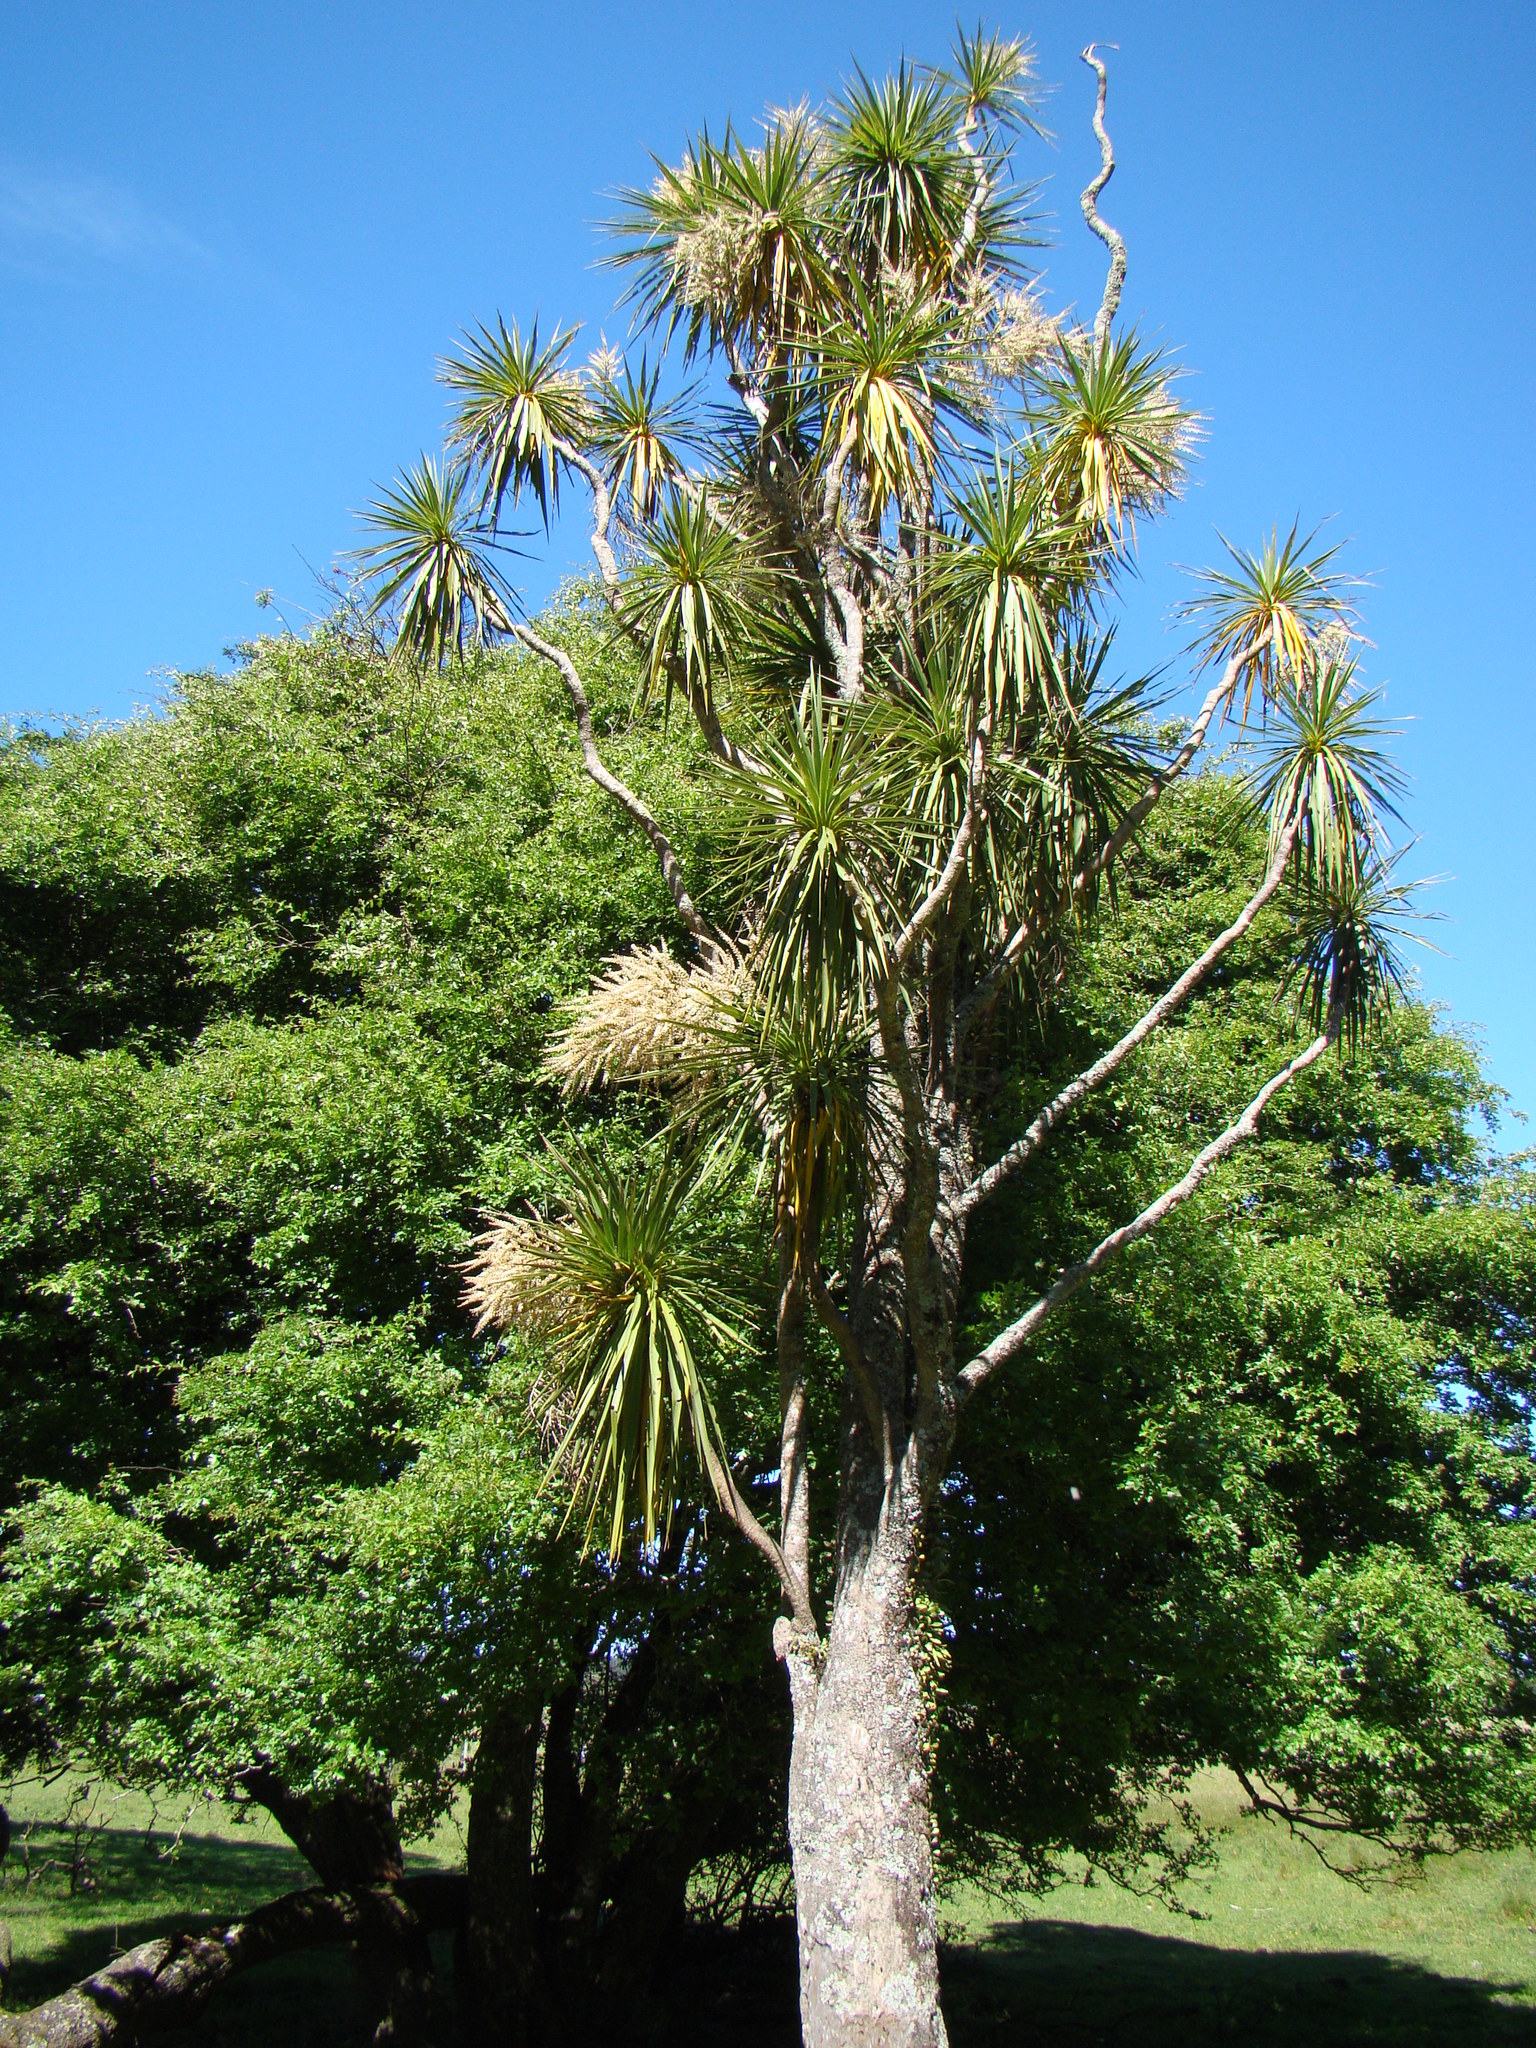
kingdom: Plantae
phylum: Tracheophyta
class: Liliopsida
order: Asparagales
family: Asparagaceae
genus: Cordyline
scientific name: Cordyline australis
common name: Cabbage-palm
